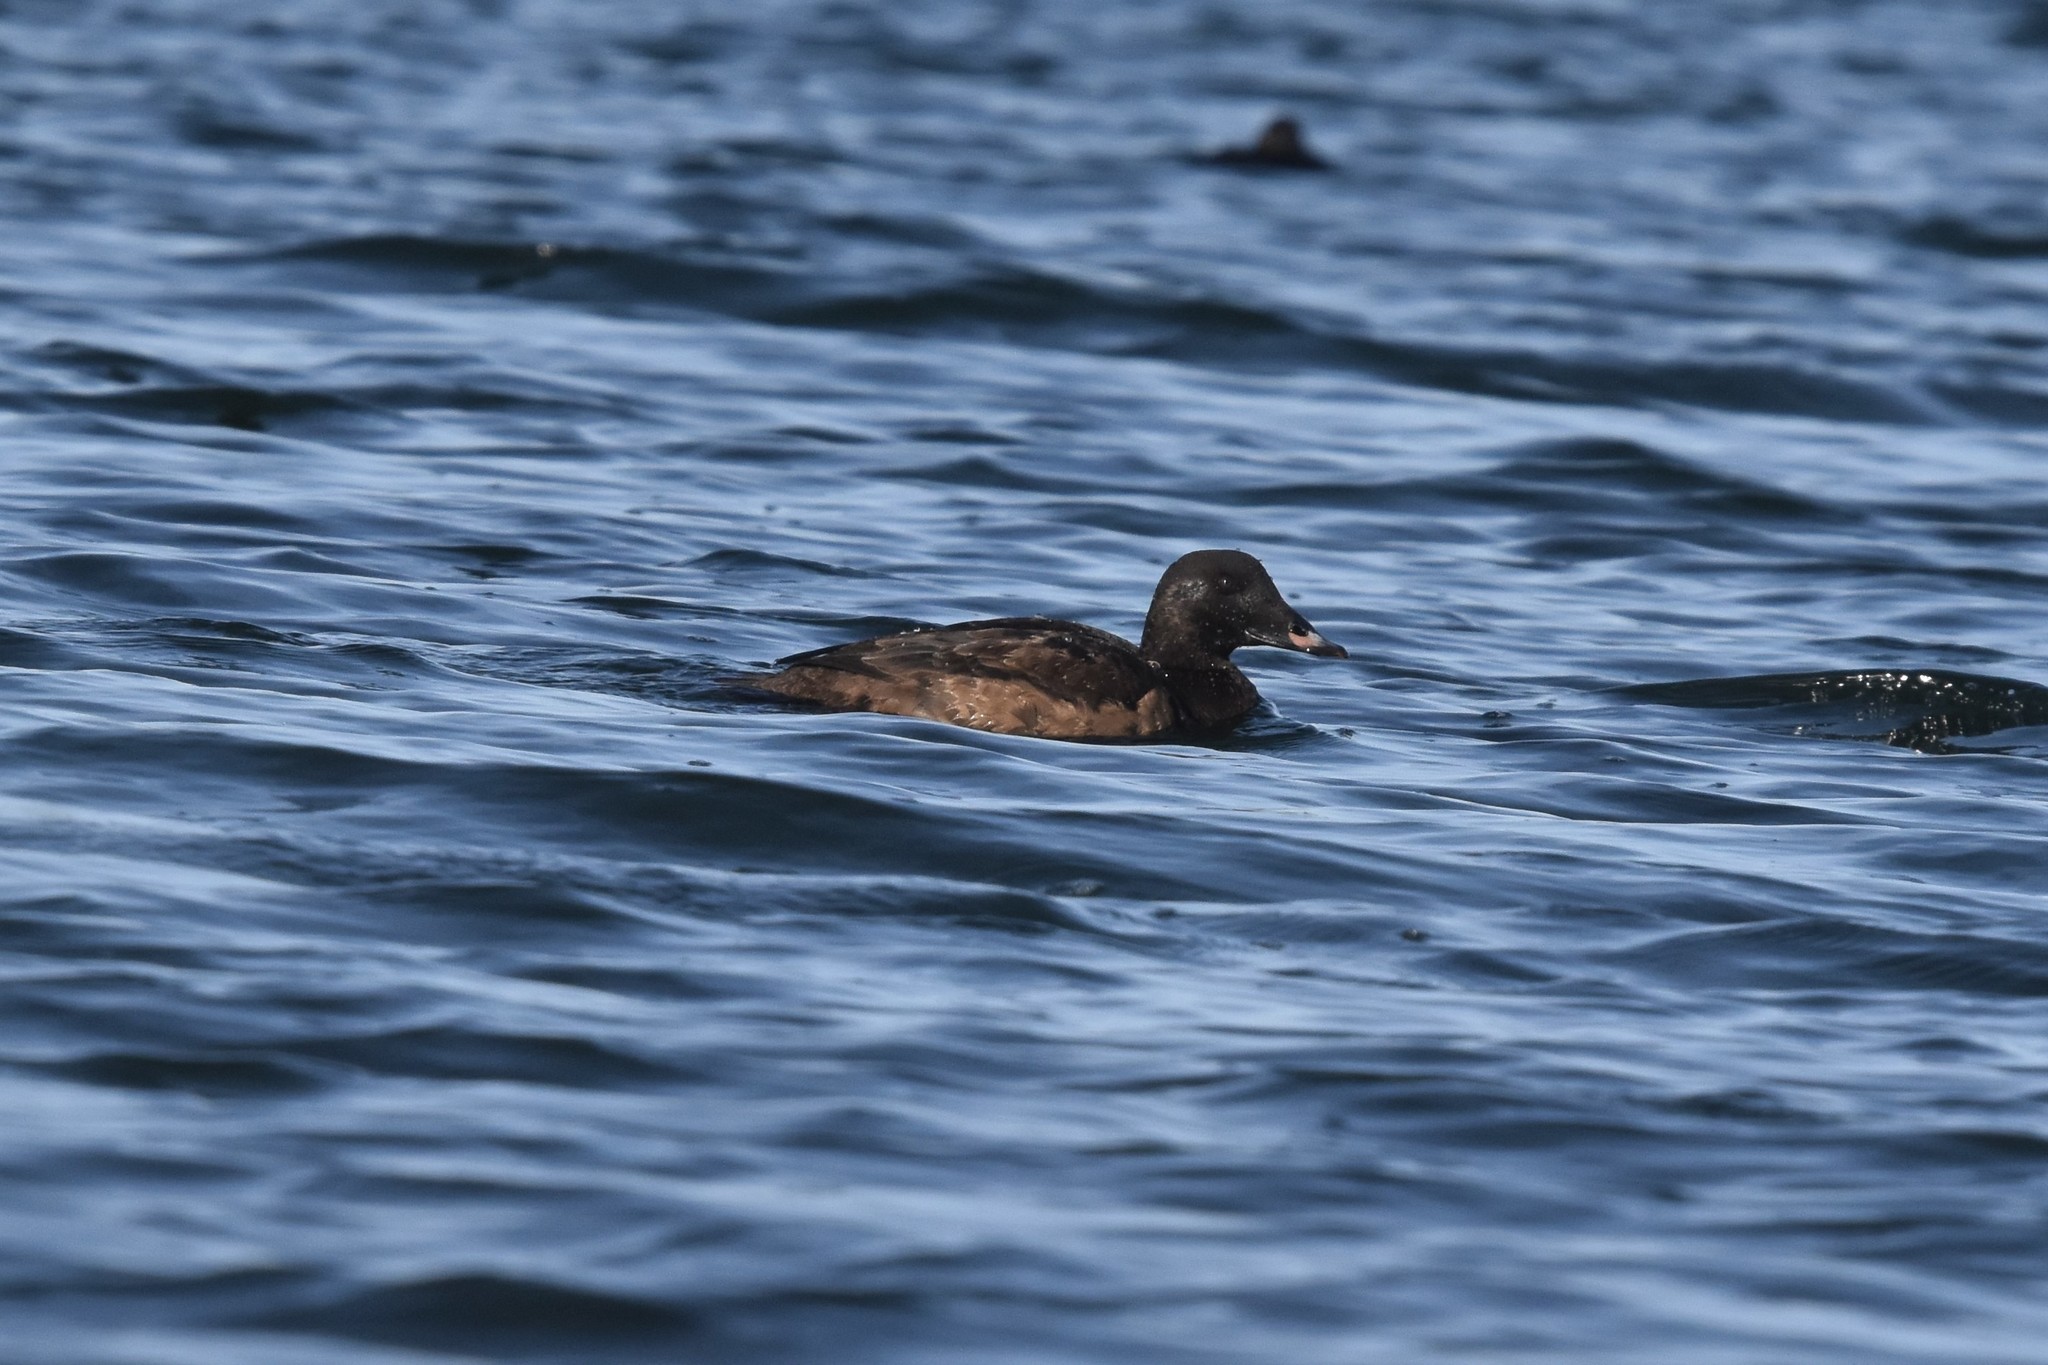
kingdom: Animalia
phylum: Chordata
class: Aves
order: Anseriformes
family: Anatidae
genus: Melanitta
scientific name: Melanitta deglandi
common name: White-winged scoter
